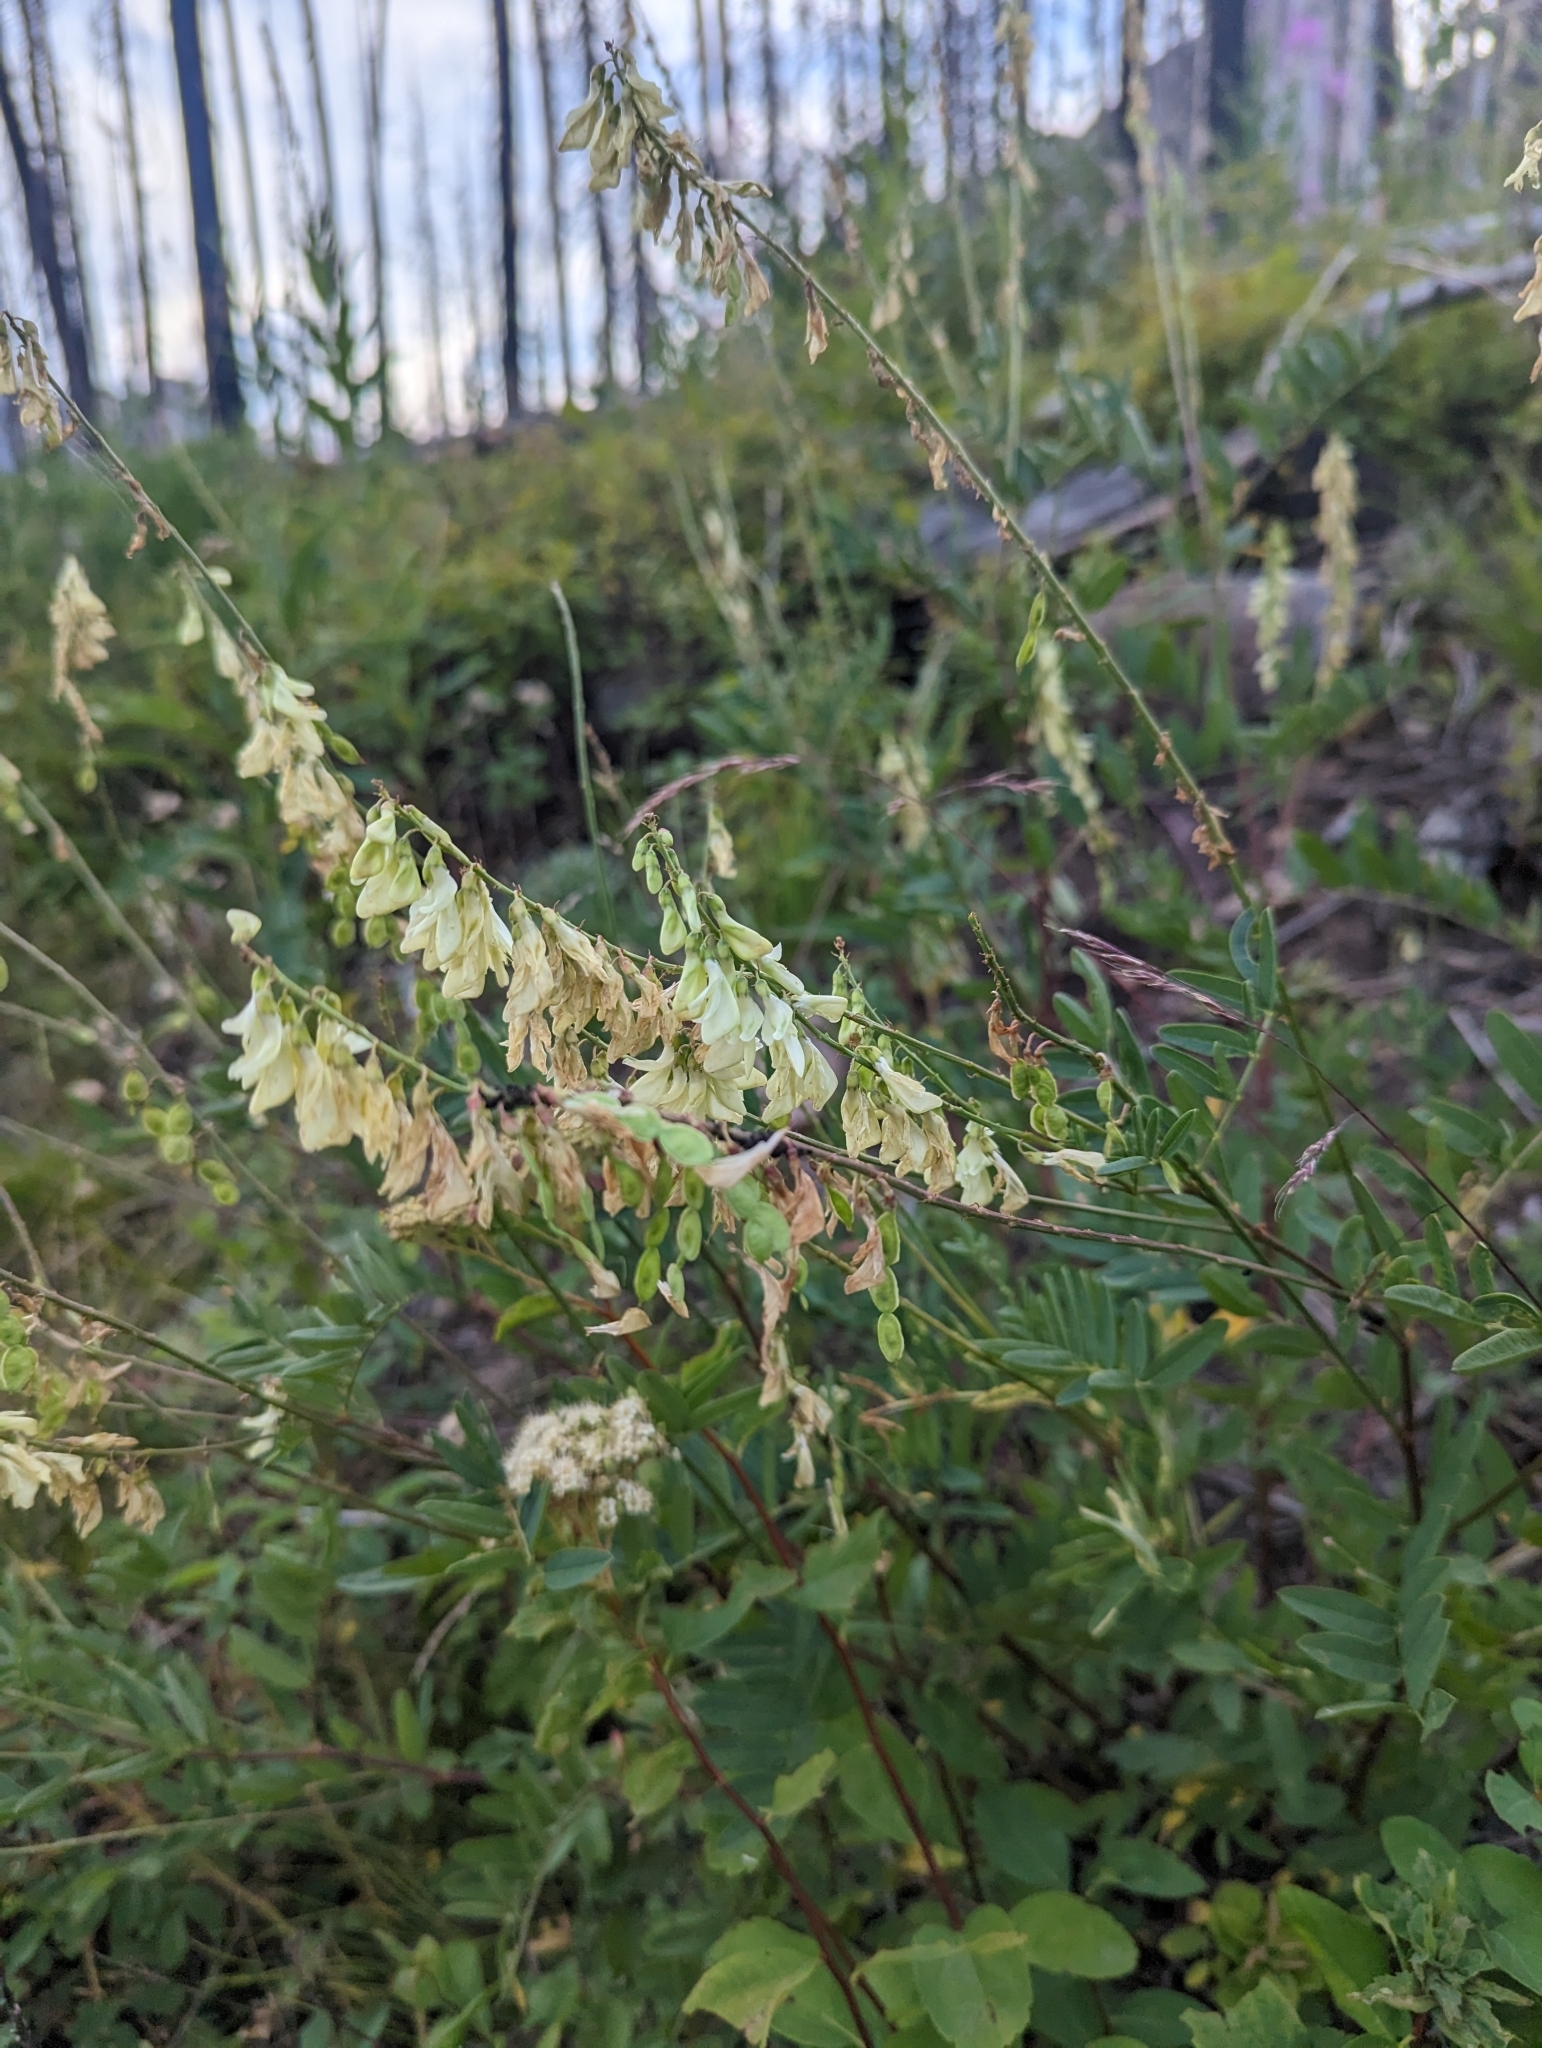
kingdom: Plantae
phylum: Tracheophyta
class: Magnoliopsida
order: Fabales
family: Fabaceae
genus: Hedysarum
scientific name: Hedysarum sulphurescens
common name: Sulphur hedysarum
